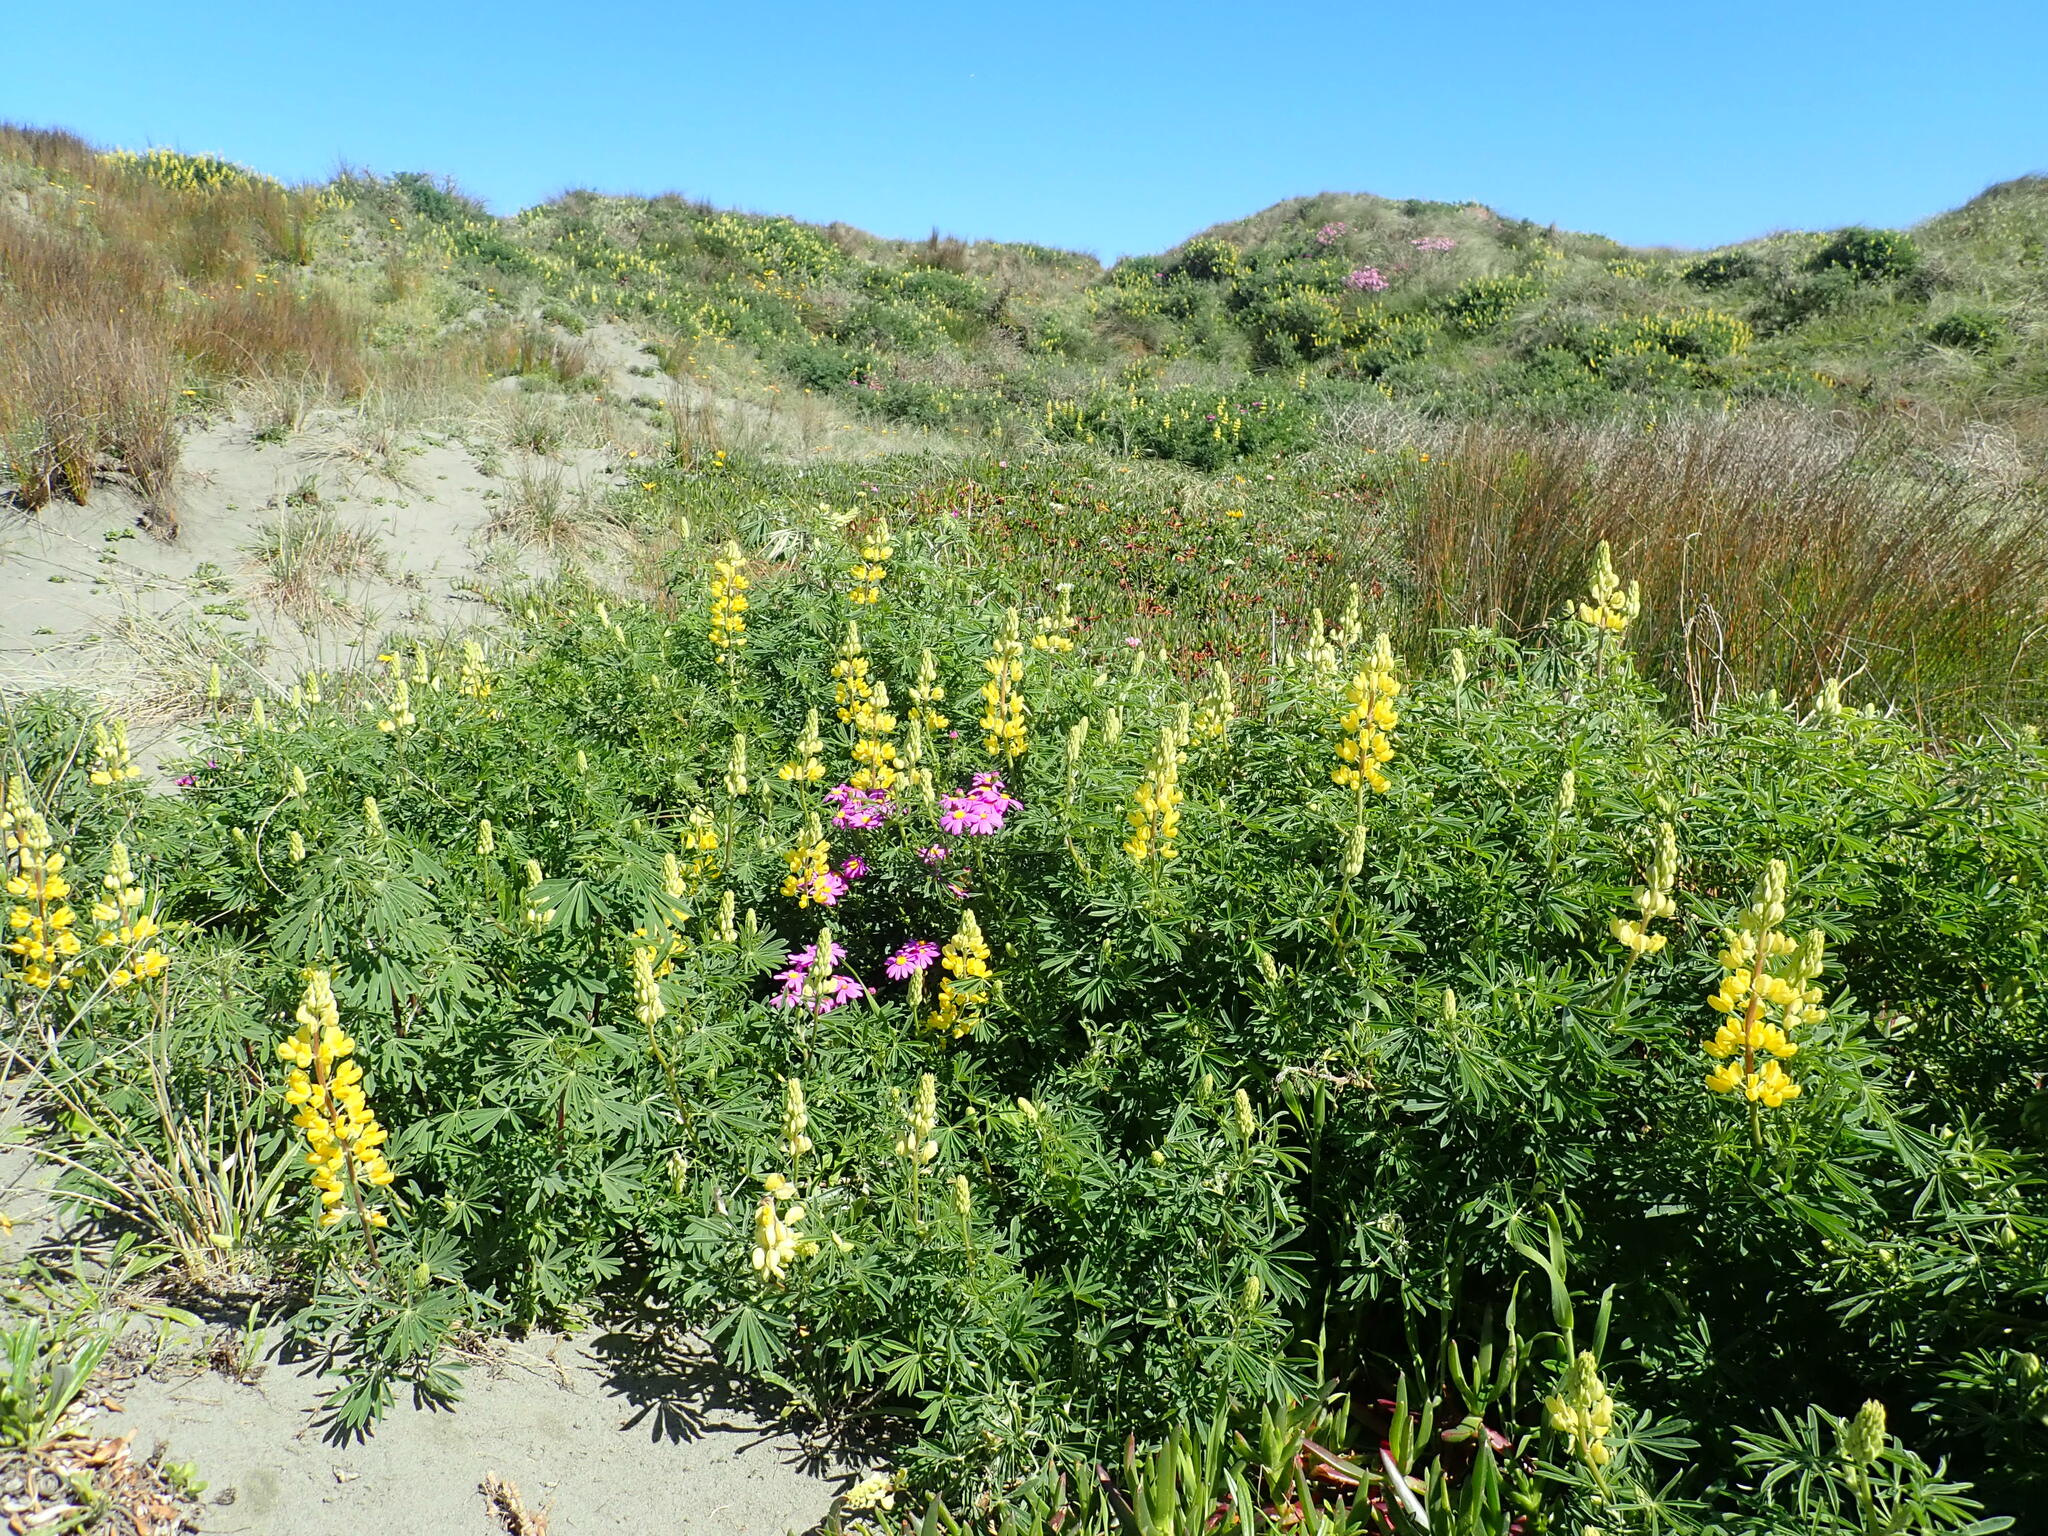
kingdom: Plantae
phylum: Tracheophyta
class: Magnoliopsida
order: Fabales
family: Fabaceae
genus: Lupinus
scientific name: Lupinus arboreus
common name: Yellow bush lupine
